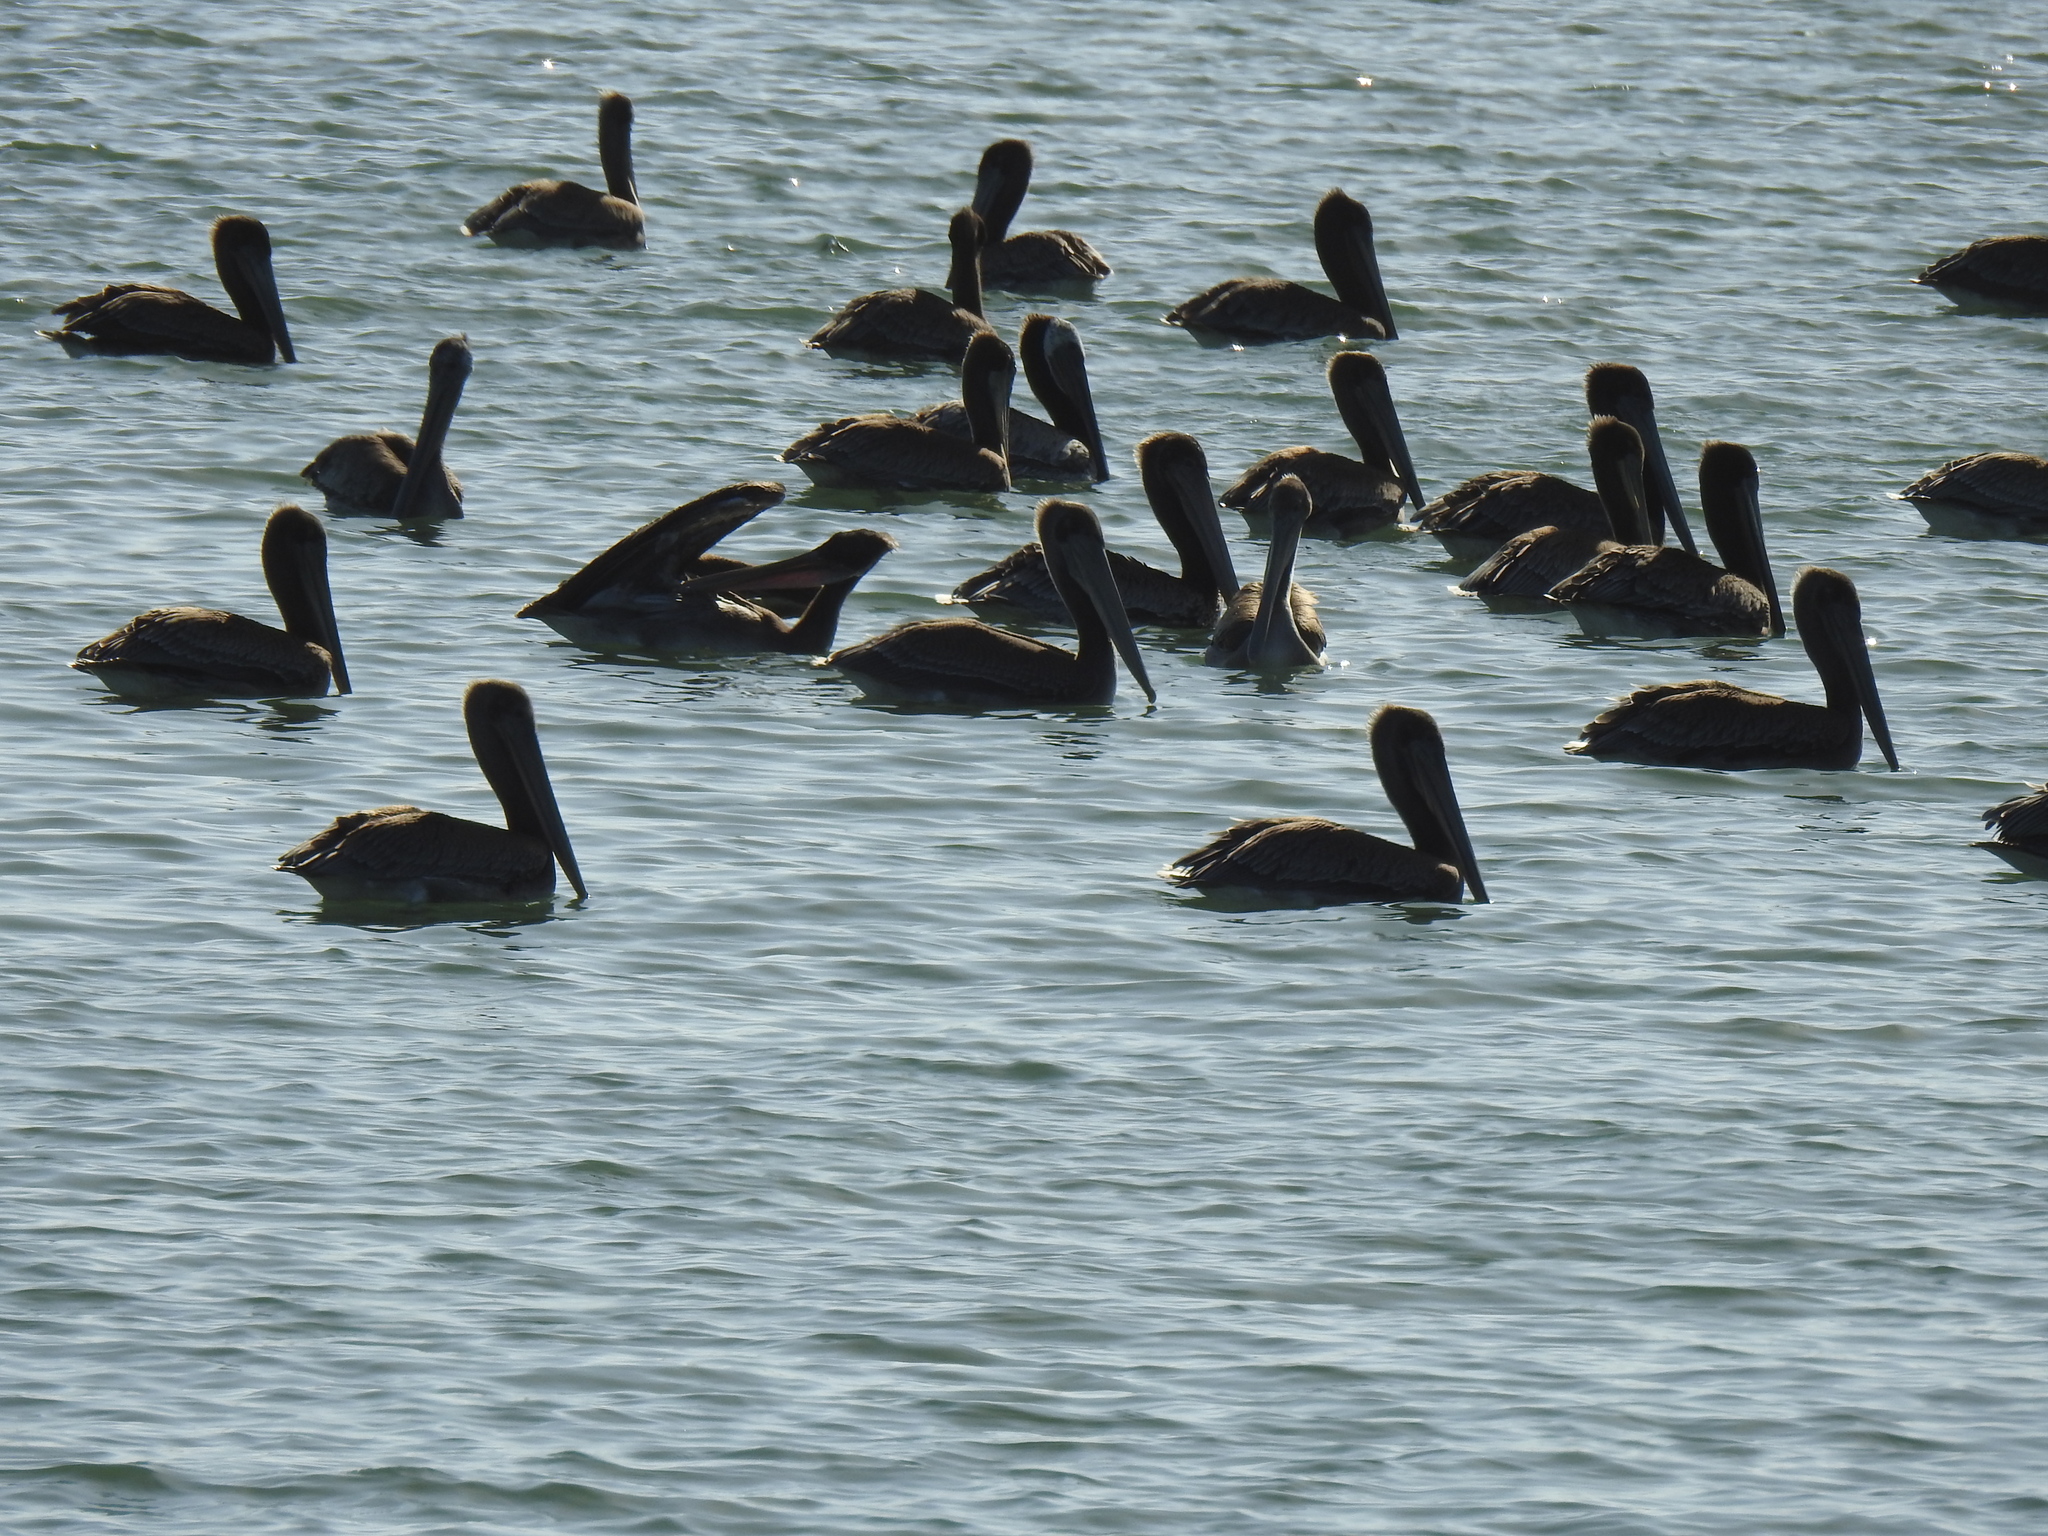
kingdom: Animalia
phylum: Chordata
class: Aves
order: Pelecaniformes
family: Pelecanidae
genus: Pelecanus
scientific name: Pelecanus occidentalis
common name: Brown pelican
